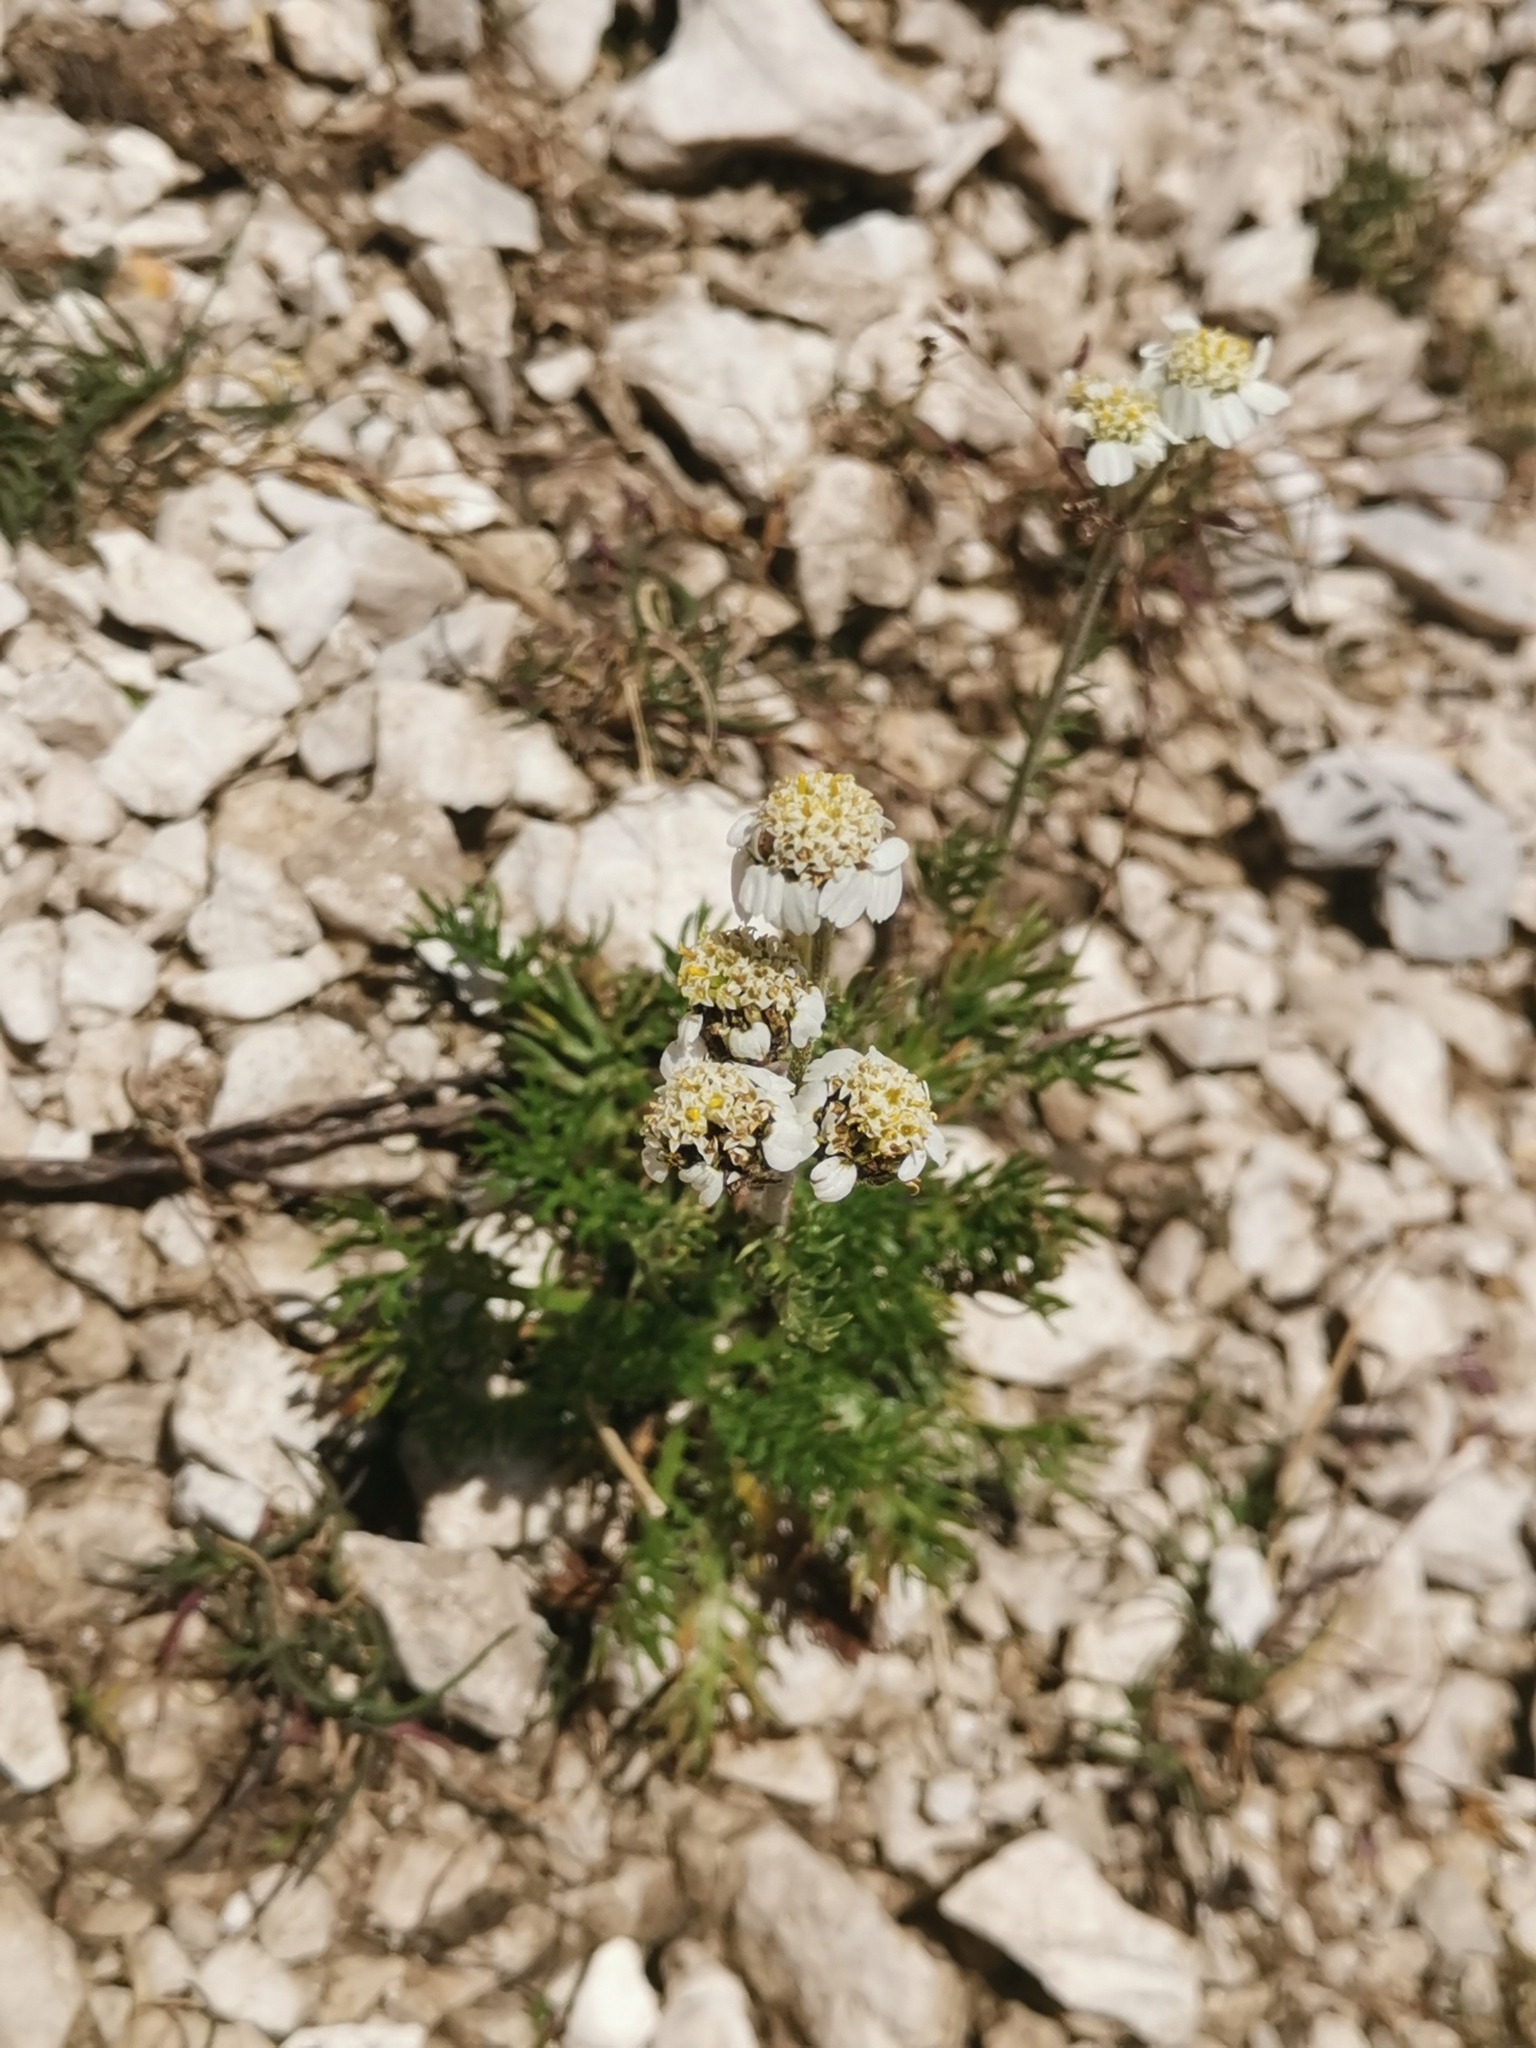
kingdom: Plantae
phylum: Tracheophyta
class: Magnoliopsida
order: Asterales
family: Asteraceae
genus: Achillea
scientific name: Achillea atrata
